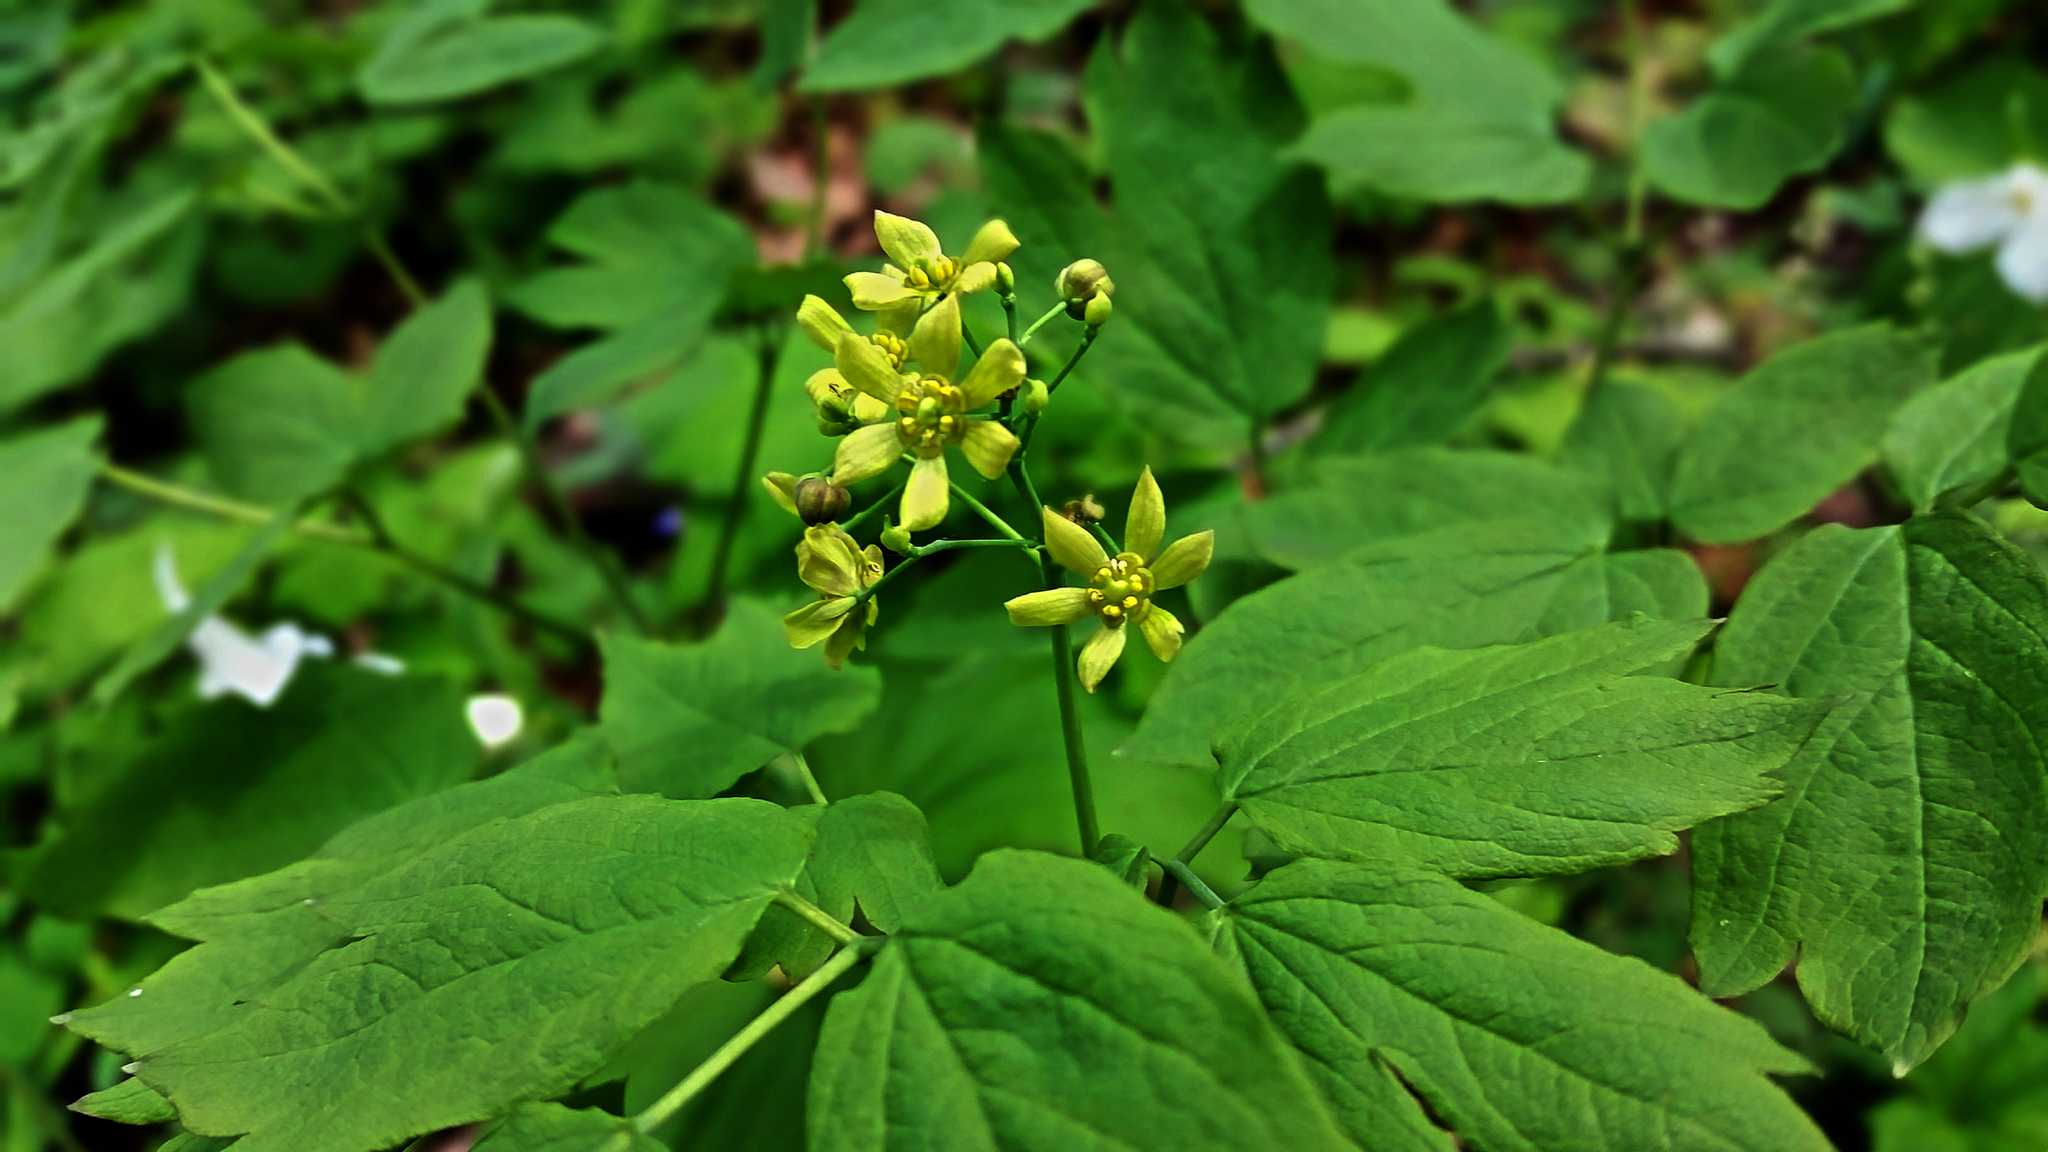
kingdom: Plantae
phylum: Tracheophyta
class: Magnoliopsida
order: Ranunculales
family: Berberidaceae
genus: Caulophyllum
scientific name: Caulophyllum thalictroides
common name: Blue cohosh
